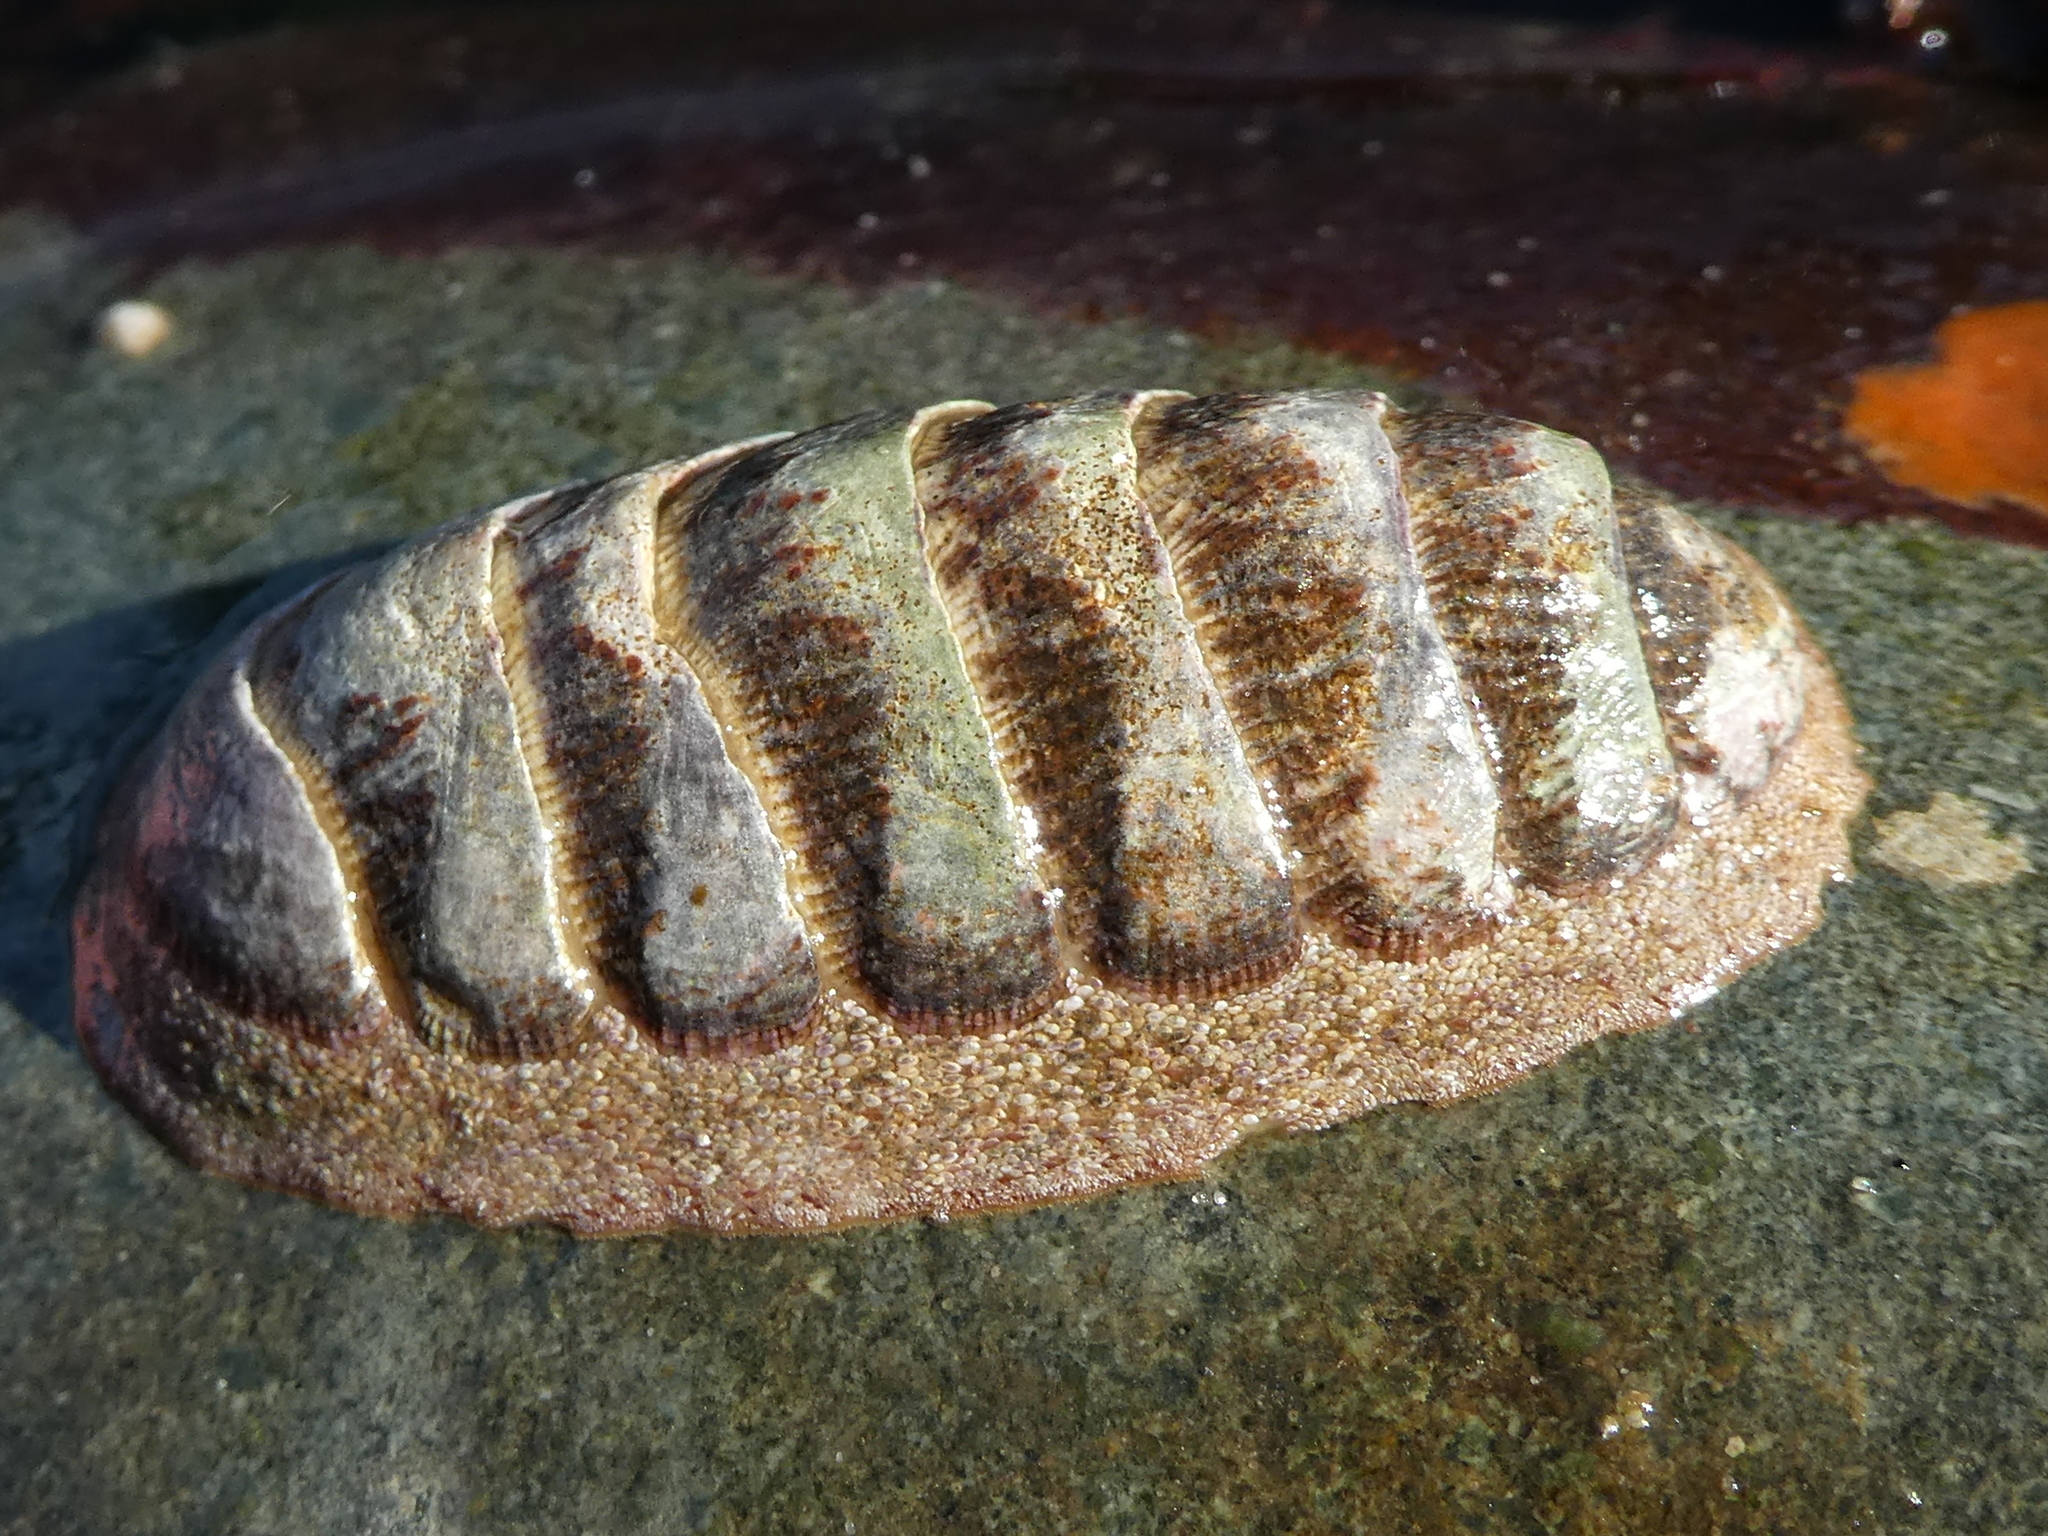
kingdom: Animalia
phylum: Mollusca
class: Polyplacophora
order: Chitonida
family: Ischnochitonidae
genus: Lepidozona
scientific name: Lepidozona mertensii
